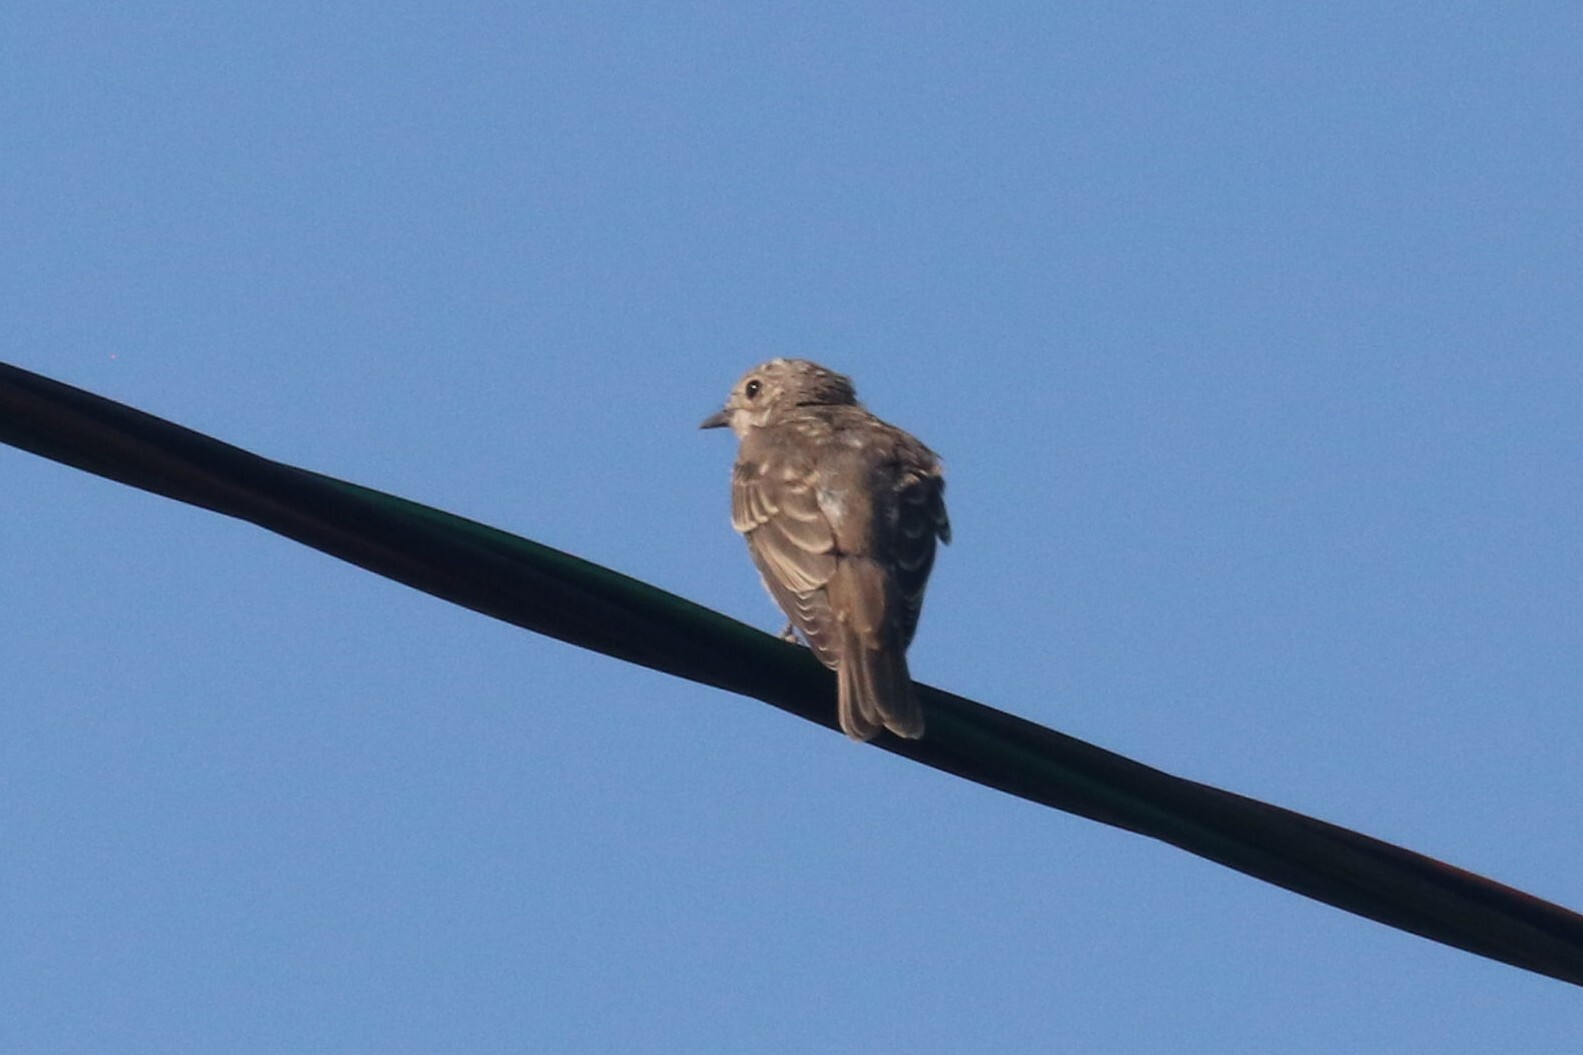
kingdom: Animalia
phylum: Chordata
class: Aves
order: Passeriformes
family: Muscicapidae
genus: Muscicapa
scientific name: Muscicapa striata
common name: Spotted flycatcher
